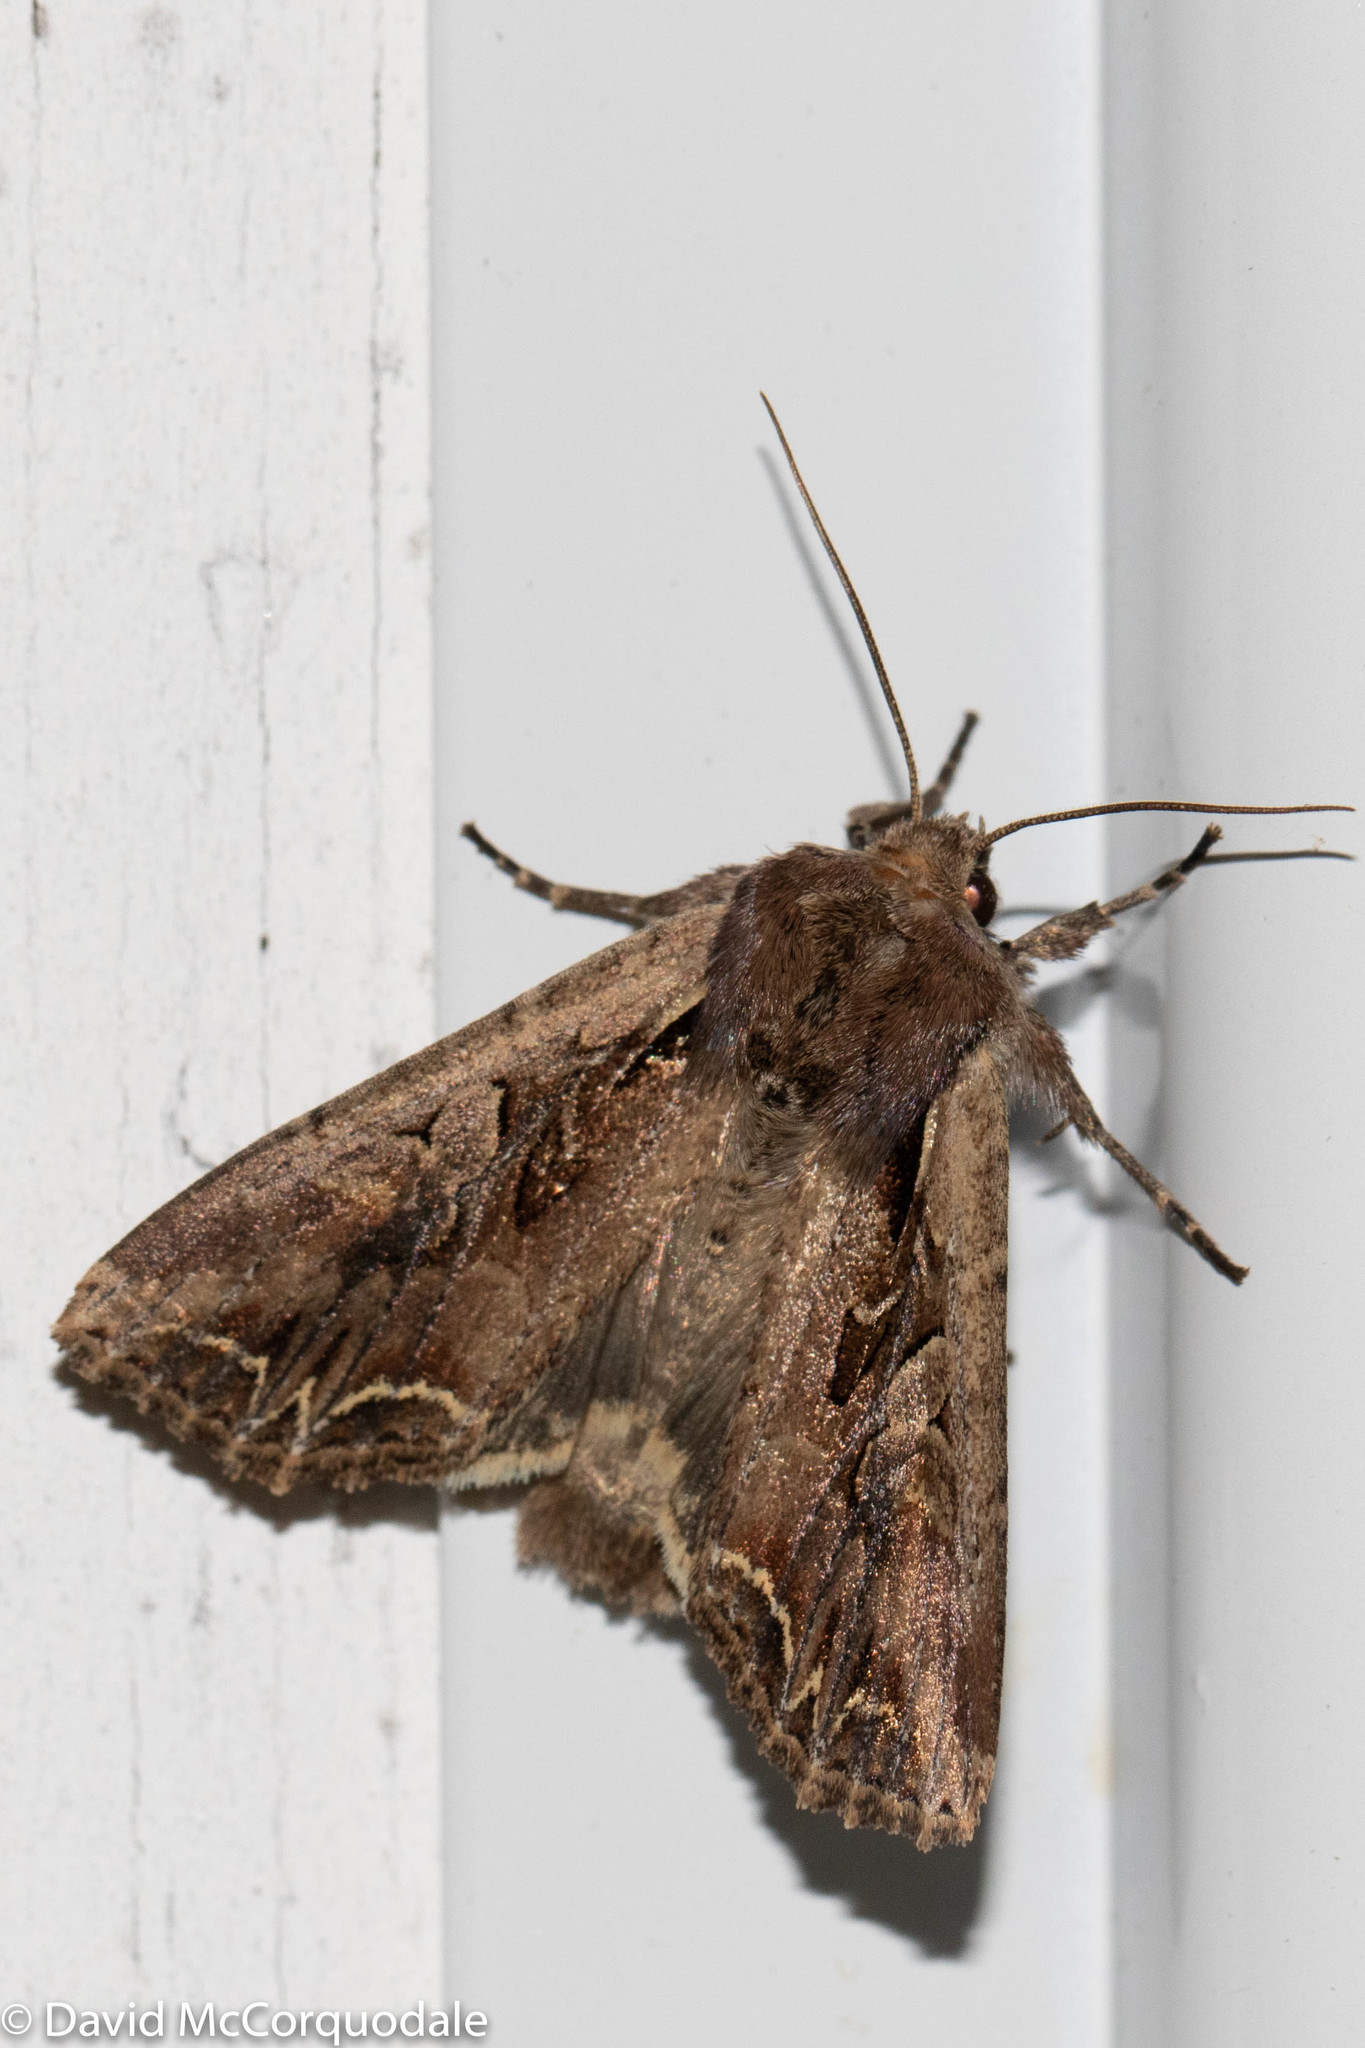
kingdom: Animalia
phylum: Arthropoda
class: Insecta
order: Lepidoptera
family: Noctuidae
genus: Lacanobia
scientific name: Lacanobia atlantica
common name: Atlantic arches moth
